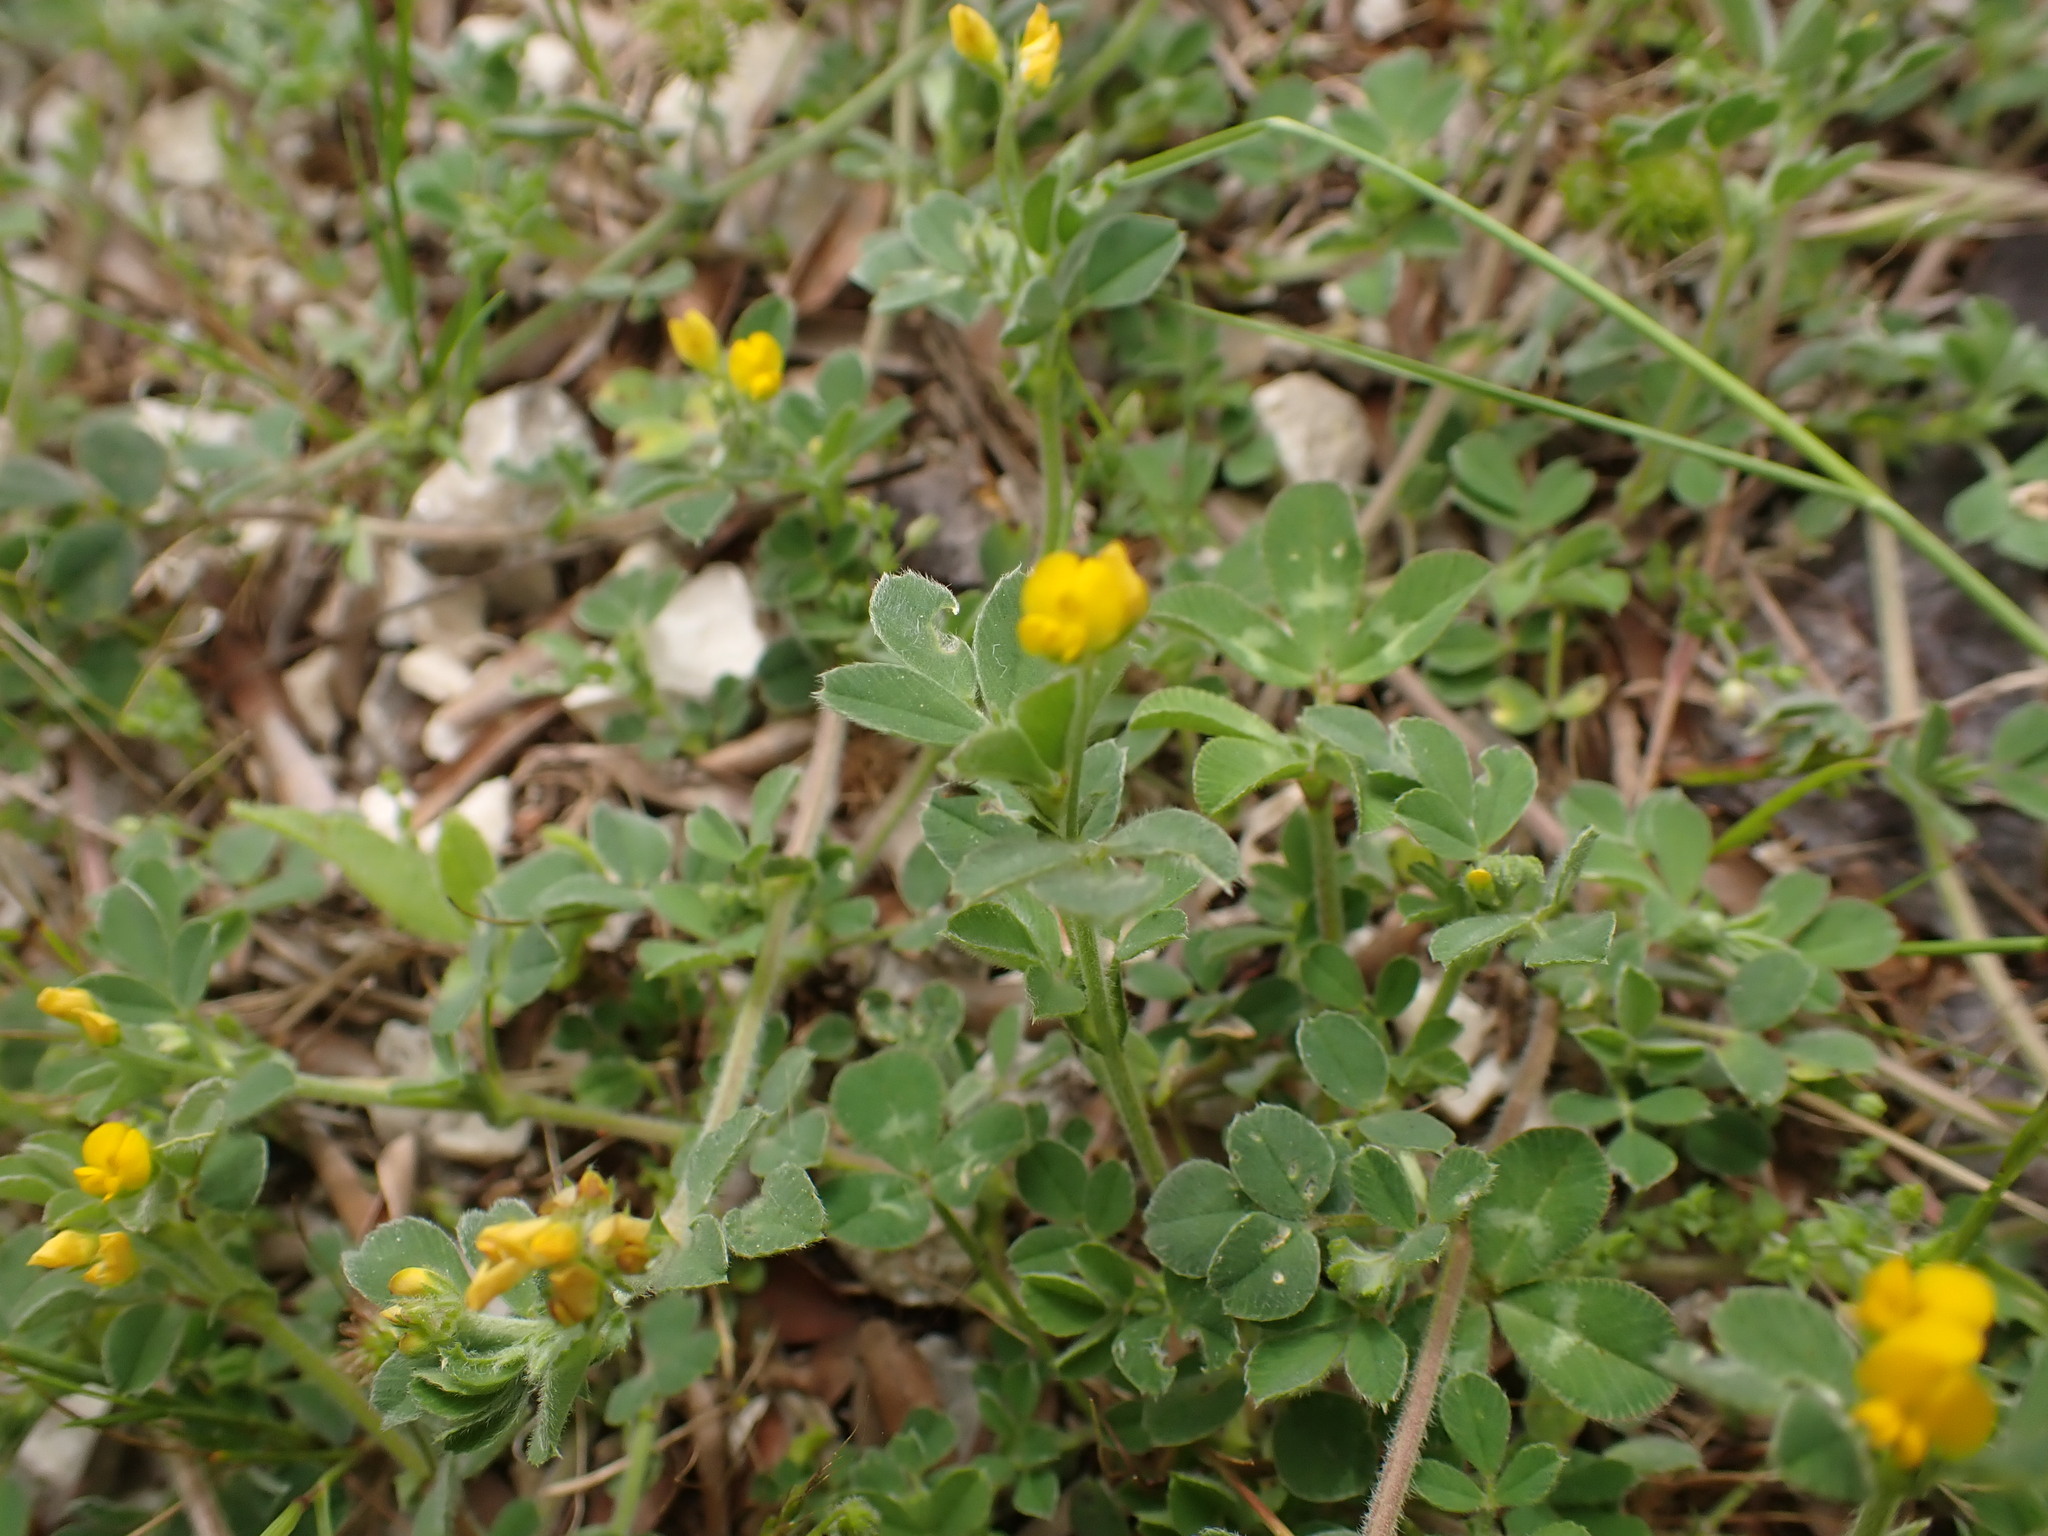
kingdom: Plantae
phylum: Tracheophyta
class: Magnoliopsida
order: Fabales
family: Fabaceae
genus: Medicago
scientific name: Medicago minima
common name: Little bur-clover
